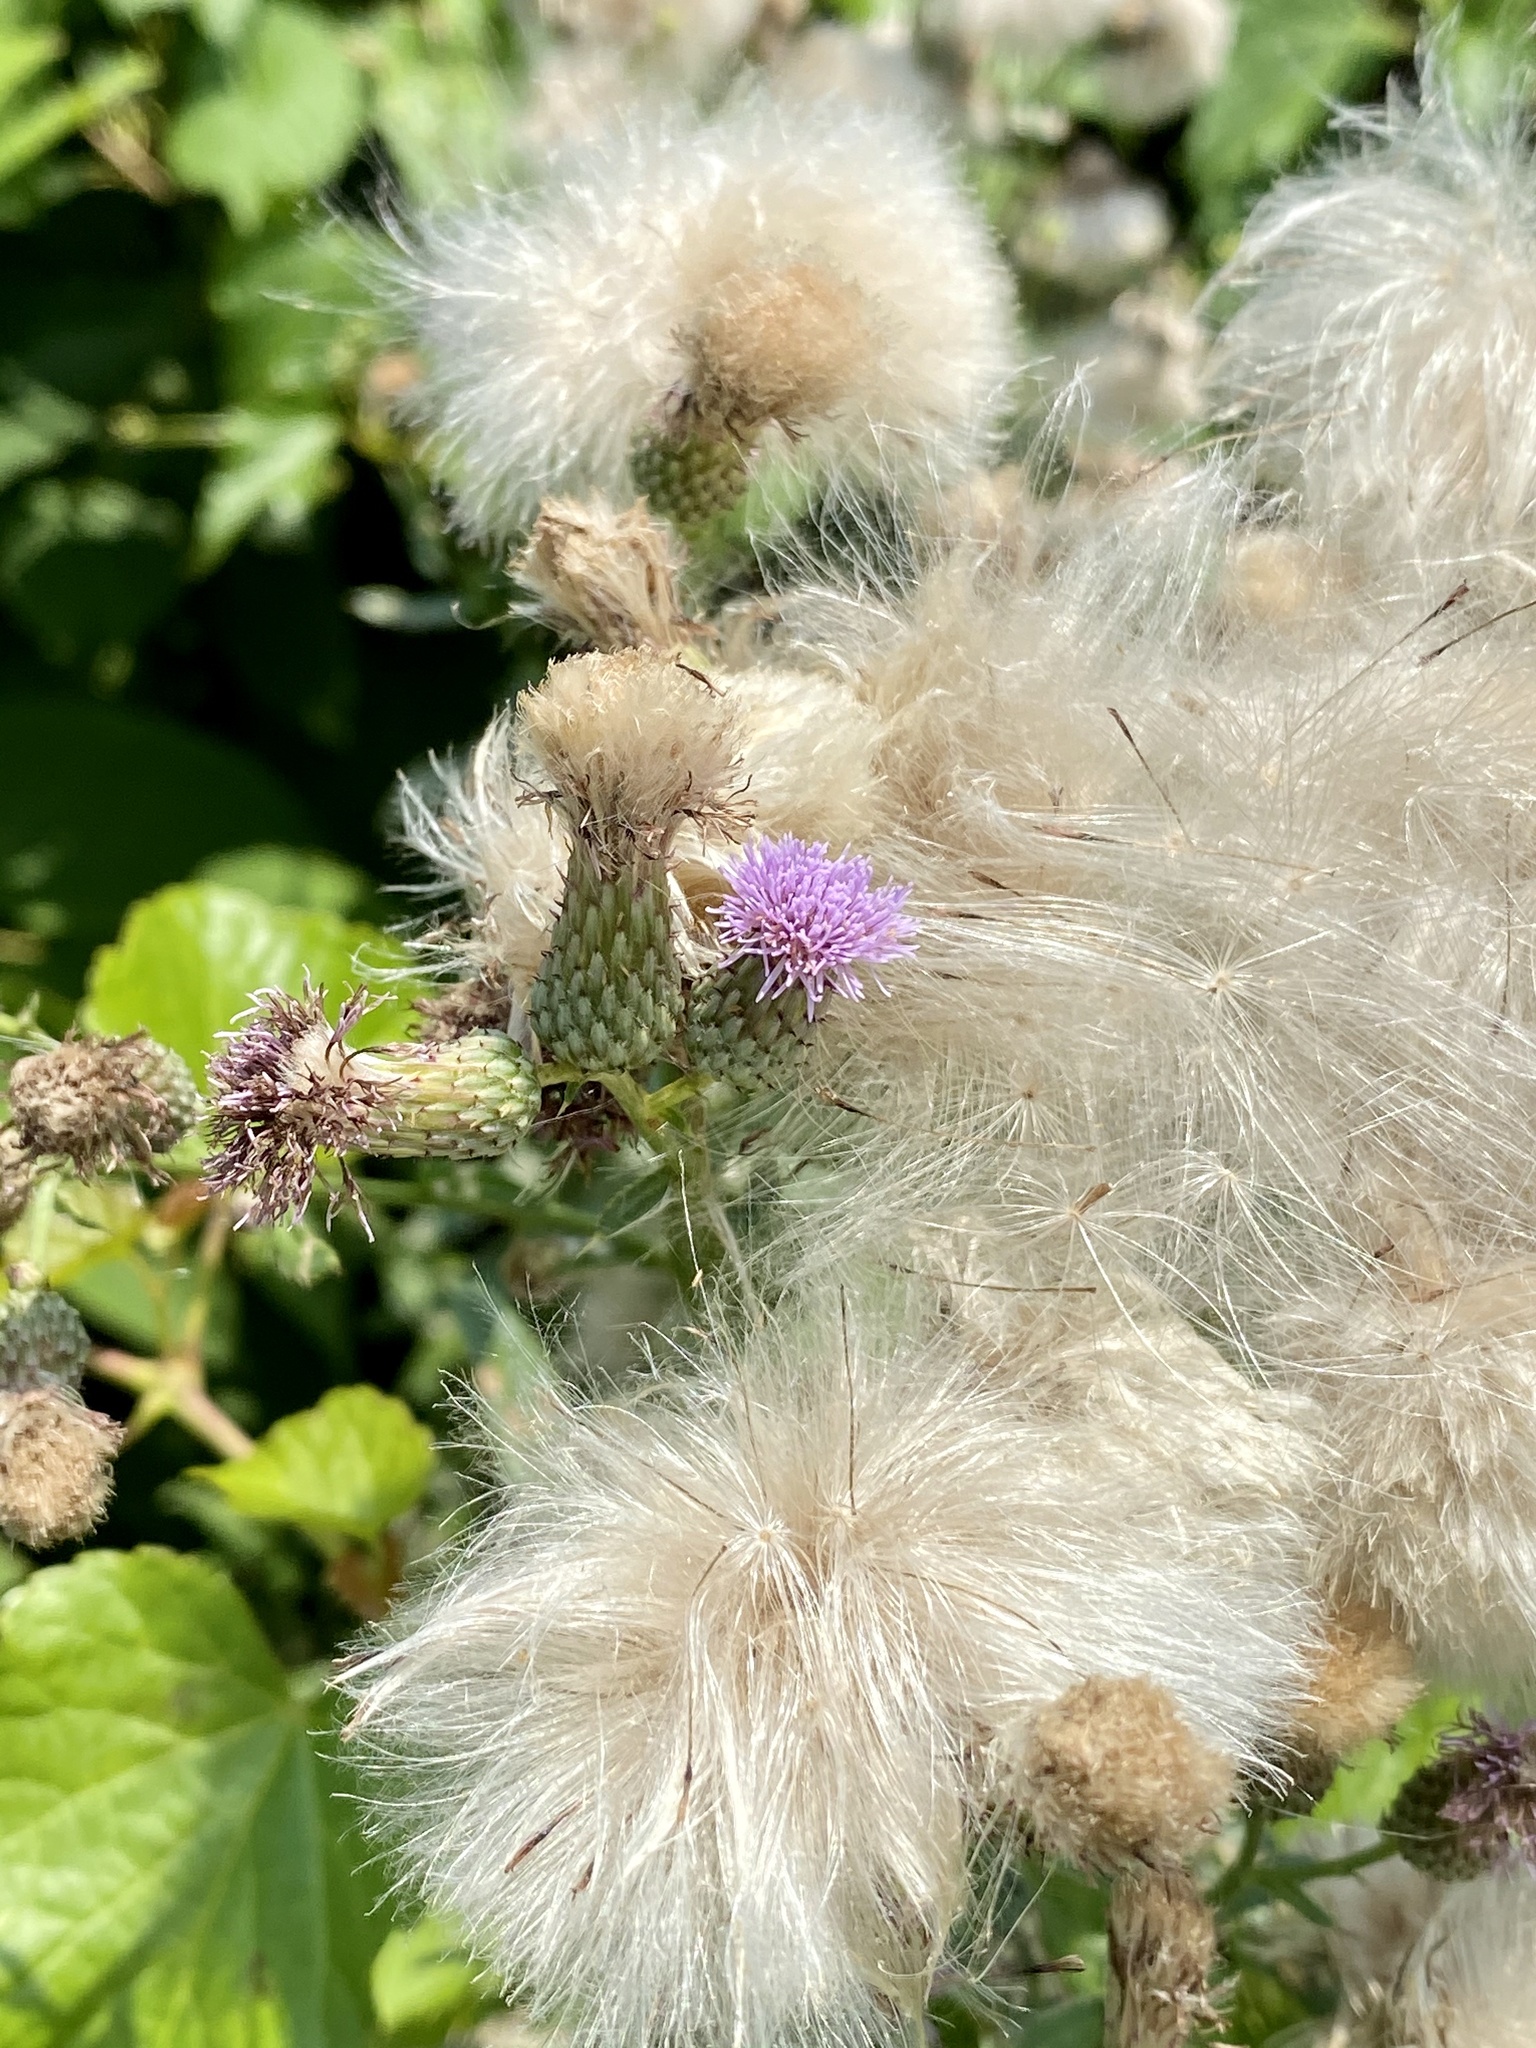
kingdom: Plantae
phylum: Tracheophyta
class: Magnoliopsida
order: Asterales
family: Asteraceae
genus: Cirsium
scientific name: Cirsium arvense
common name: Creeping thistle
